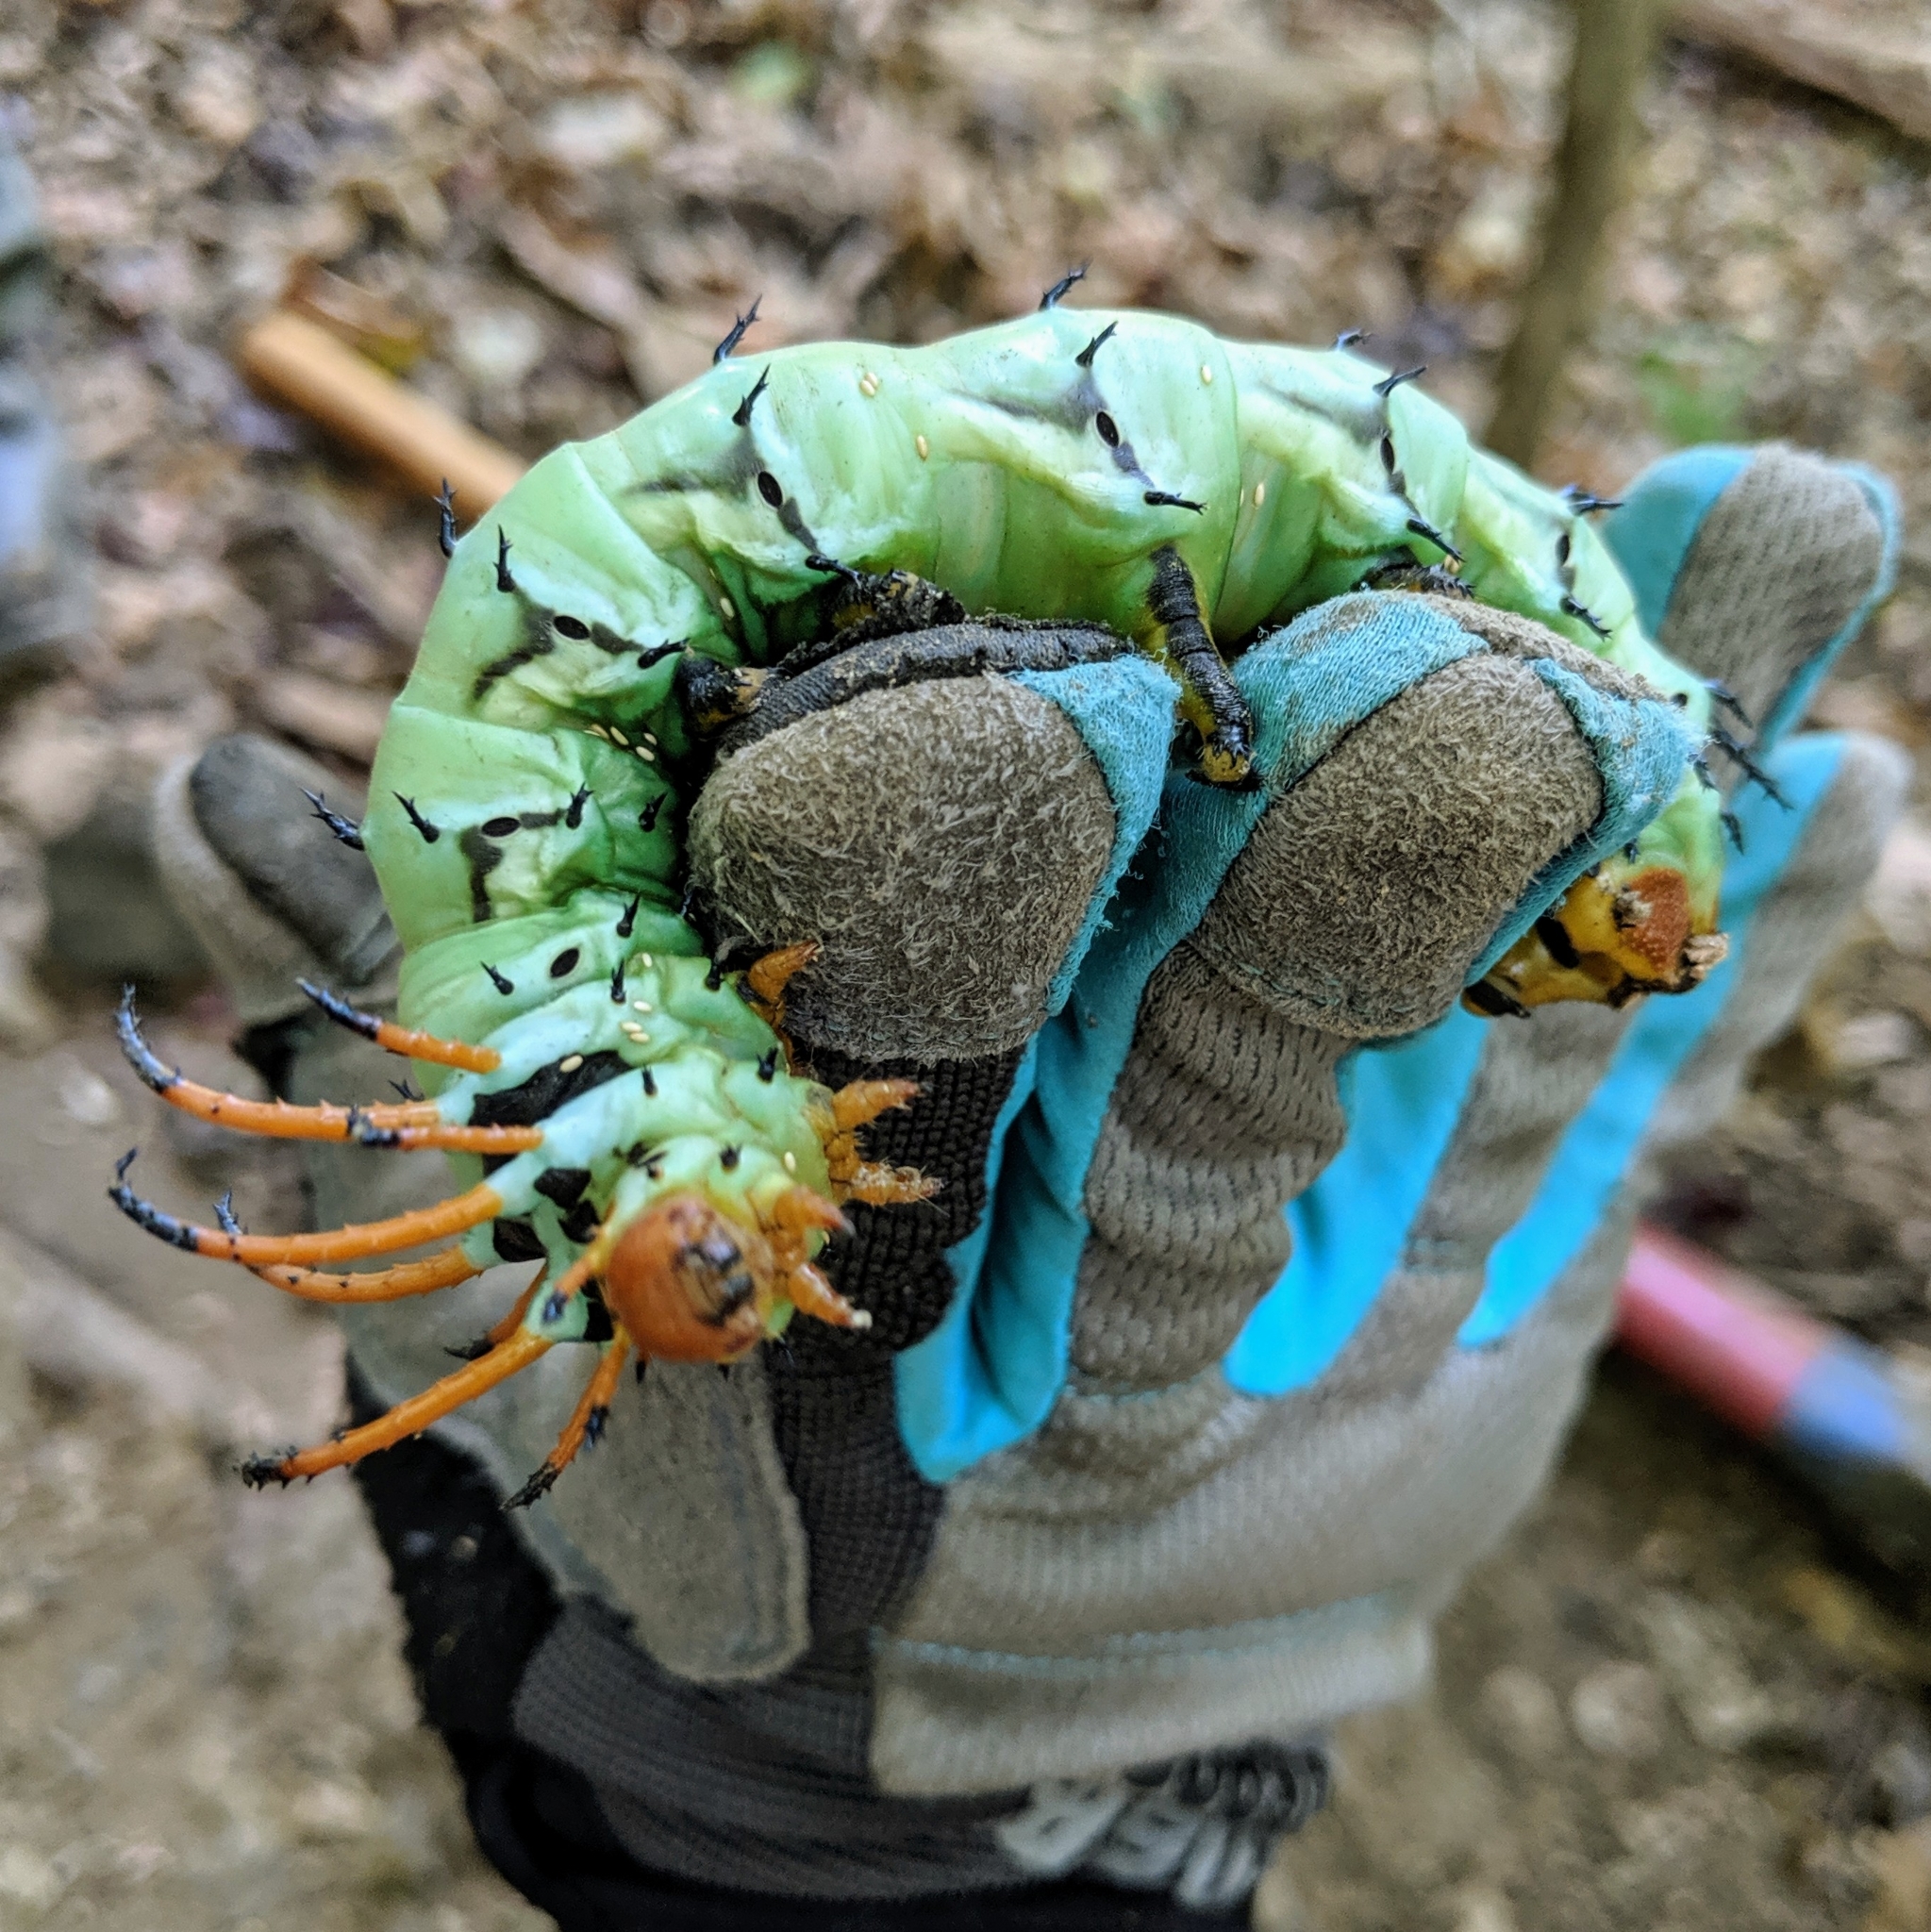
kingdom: Animalia
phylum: Arthropoda
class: Insecta
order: Lepidoptera
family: Saturniidae
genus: Citheronia
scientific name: Citheronia regalis
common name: Hickory horned devil
